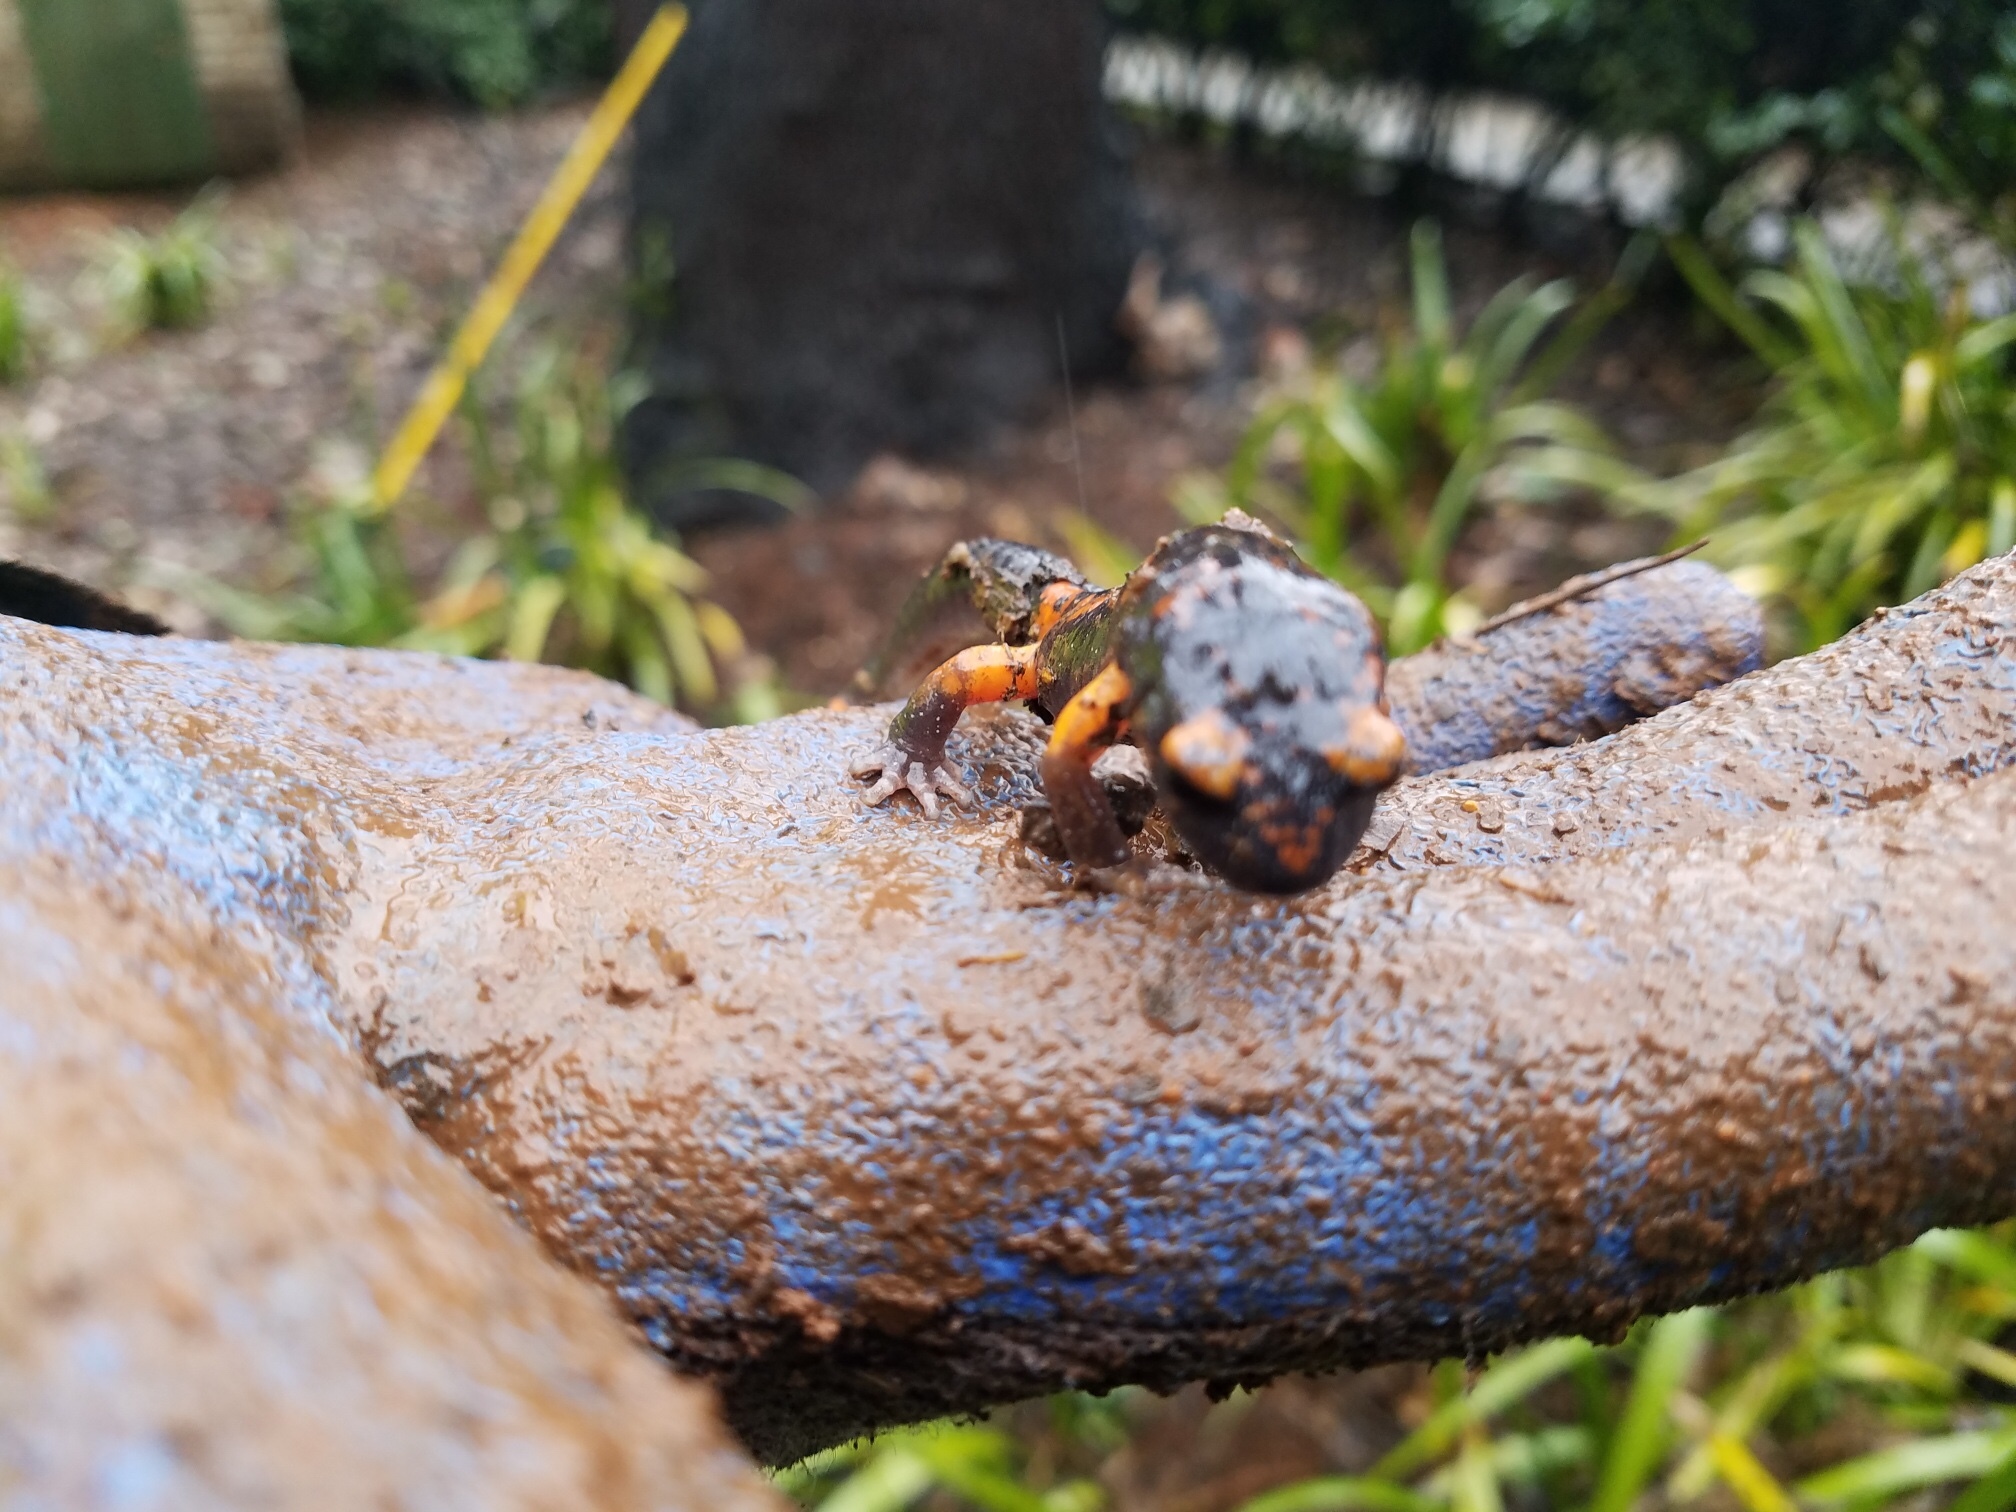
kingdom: Animalia
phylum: Chordata
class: Amphibia
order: Caudata
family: Plethodontidae
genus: Ensatina
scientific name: Ensatina eschscholtzii
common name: Ensatina
